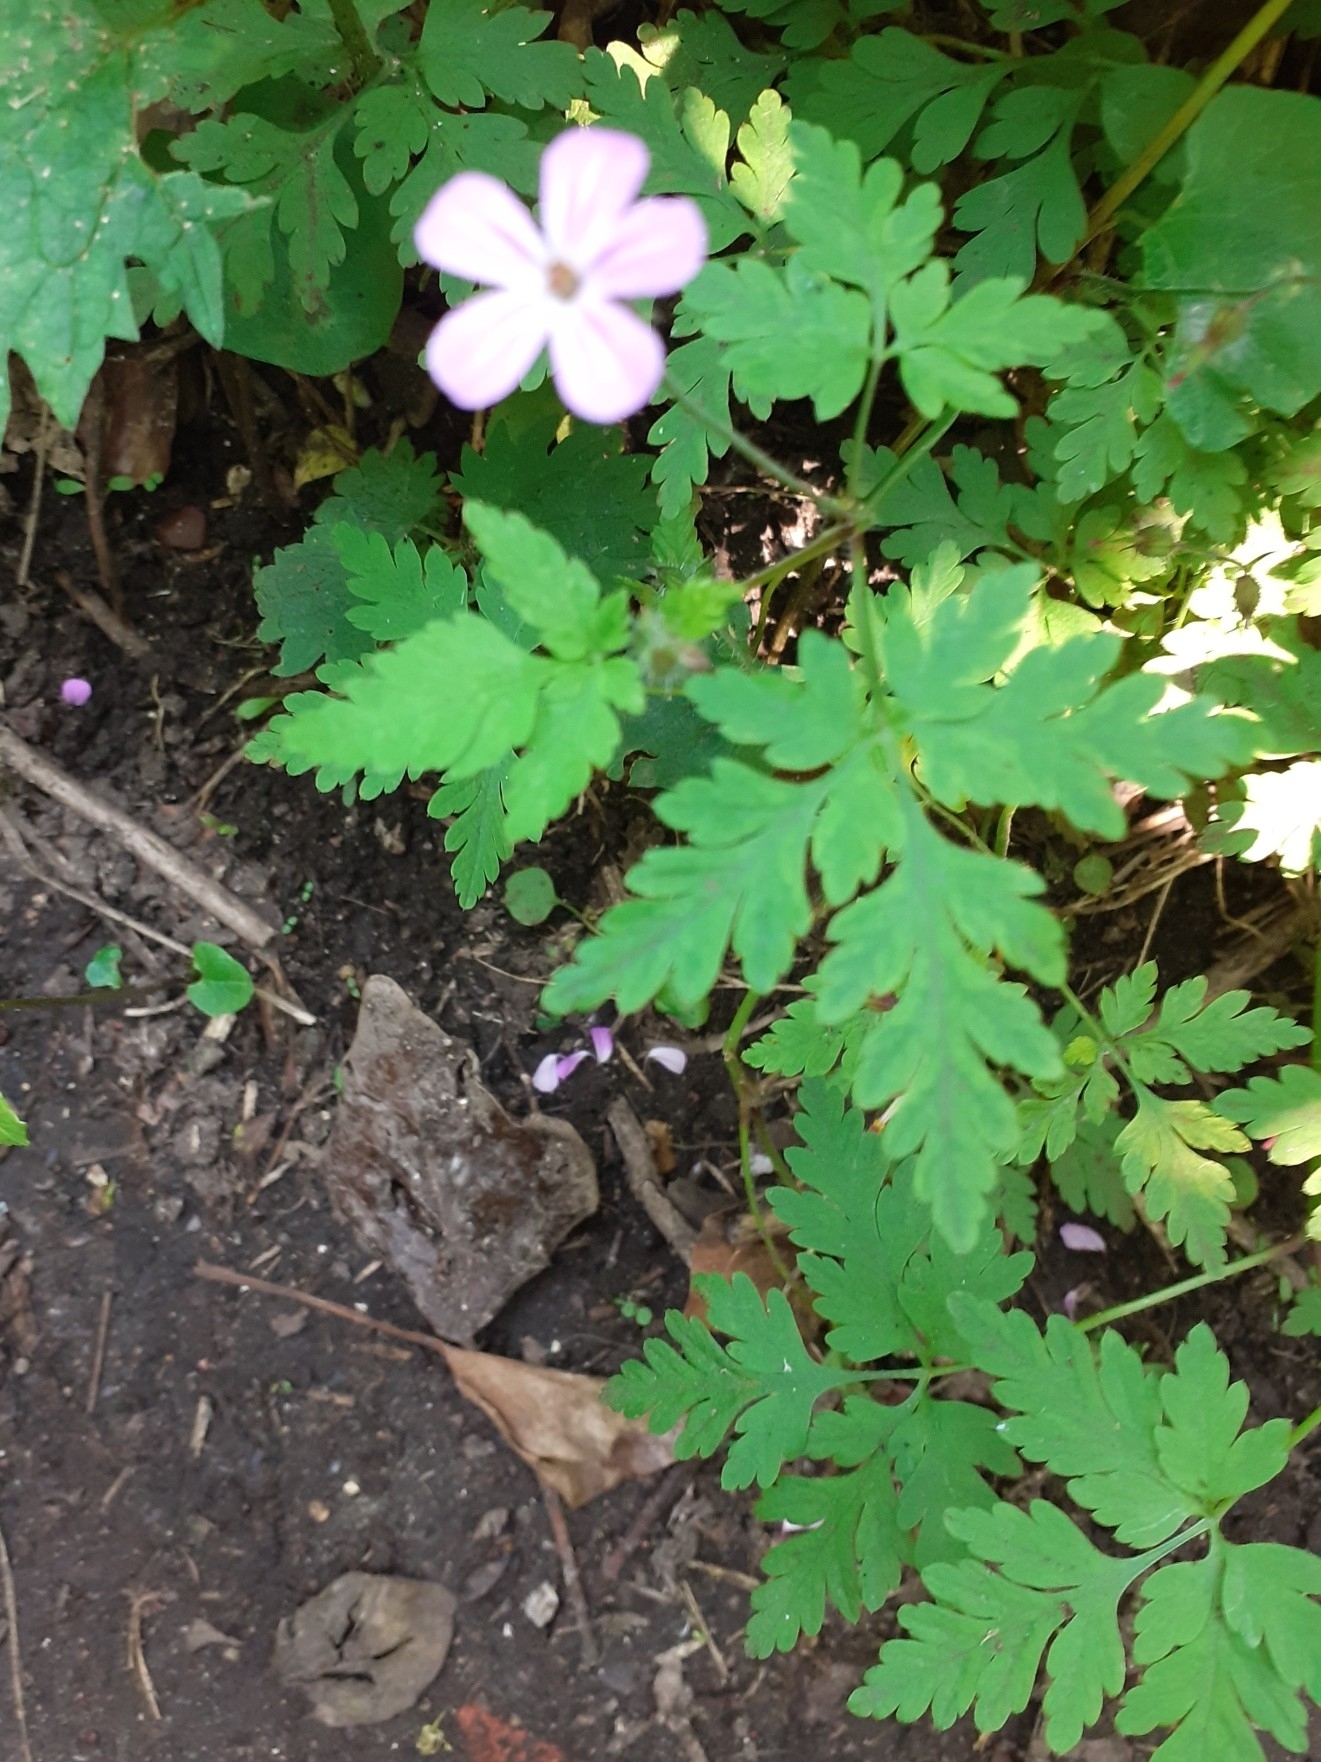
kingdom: Plantae
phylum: Tracheophyta
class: Magnoliopsida
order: Geraniales
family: Geraniaceae
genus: Geranium
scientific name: Geranium robertianum
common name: Herb-robert
